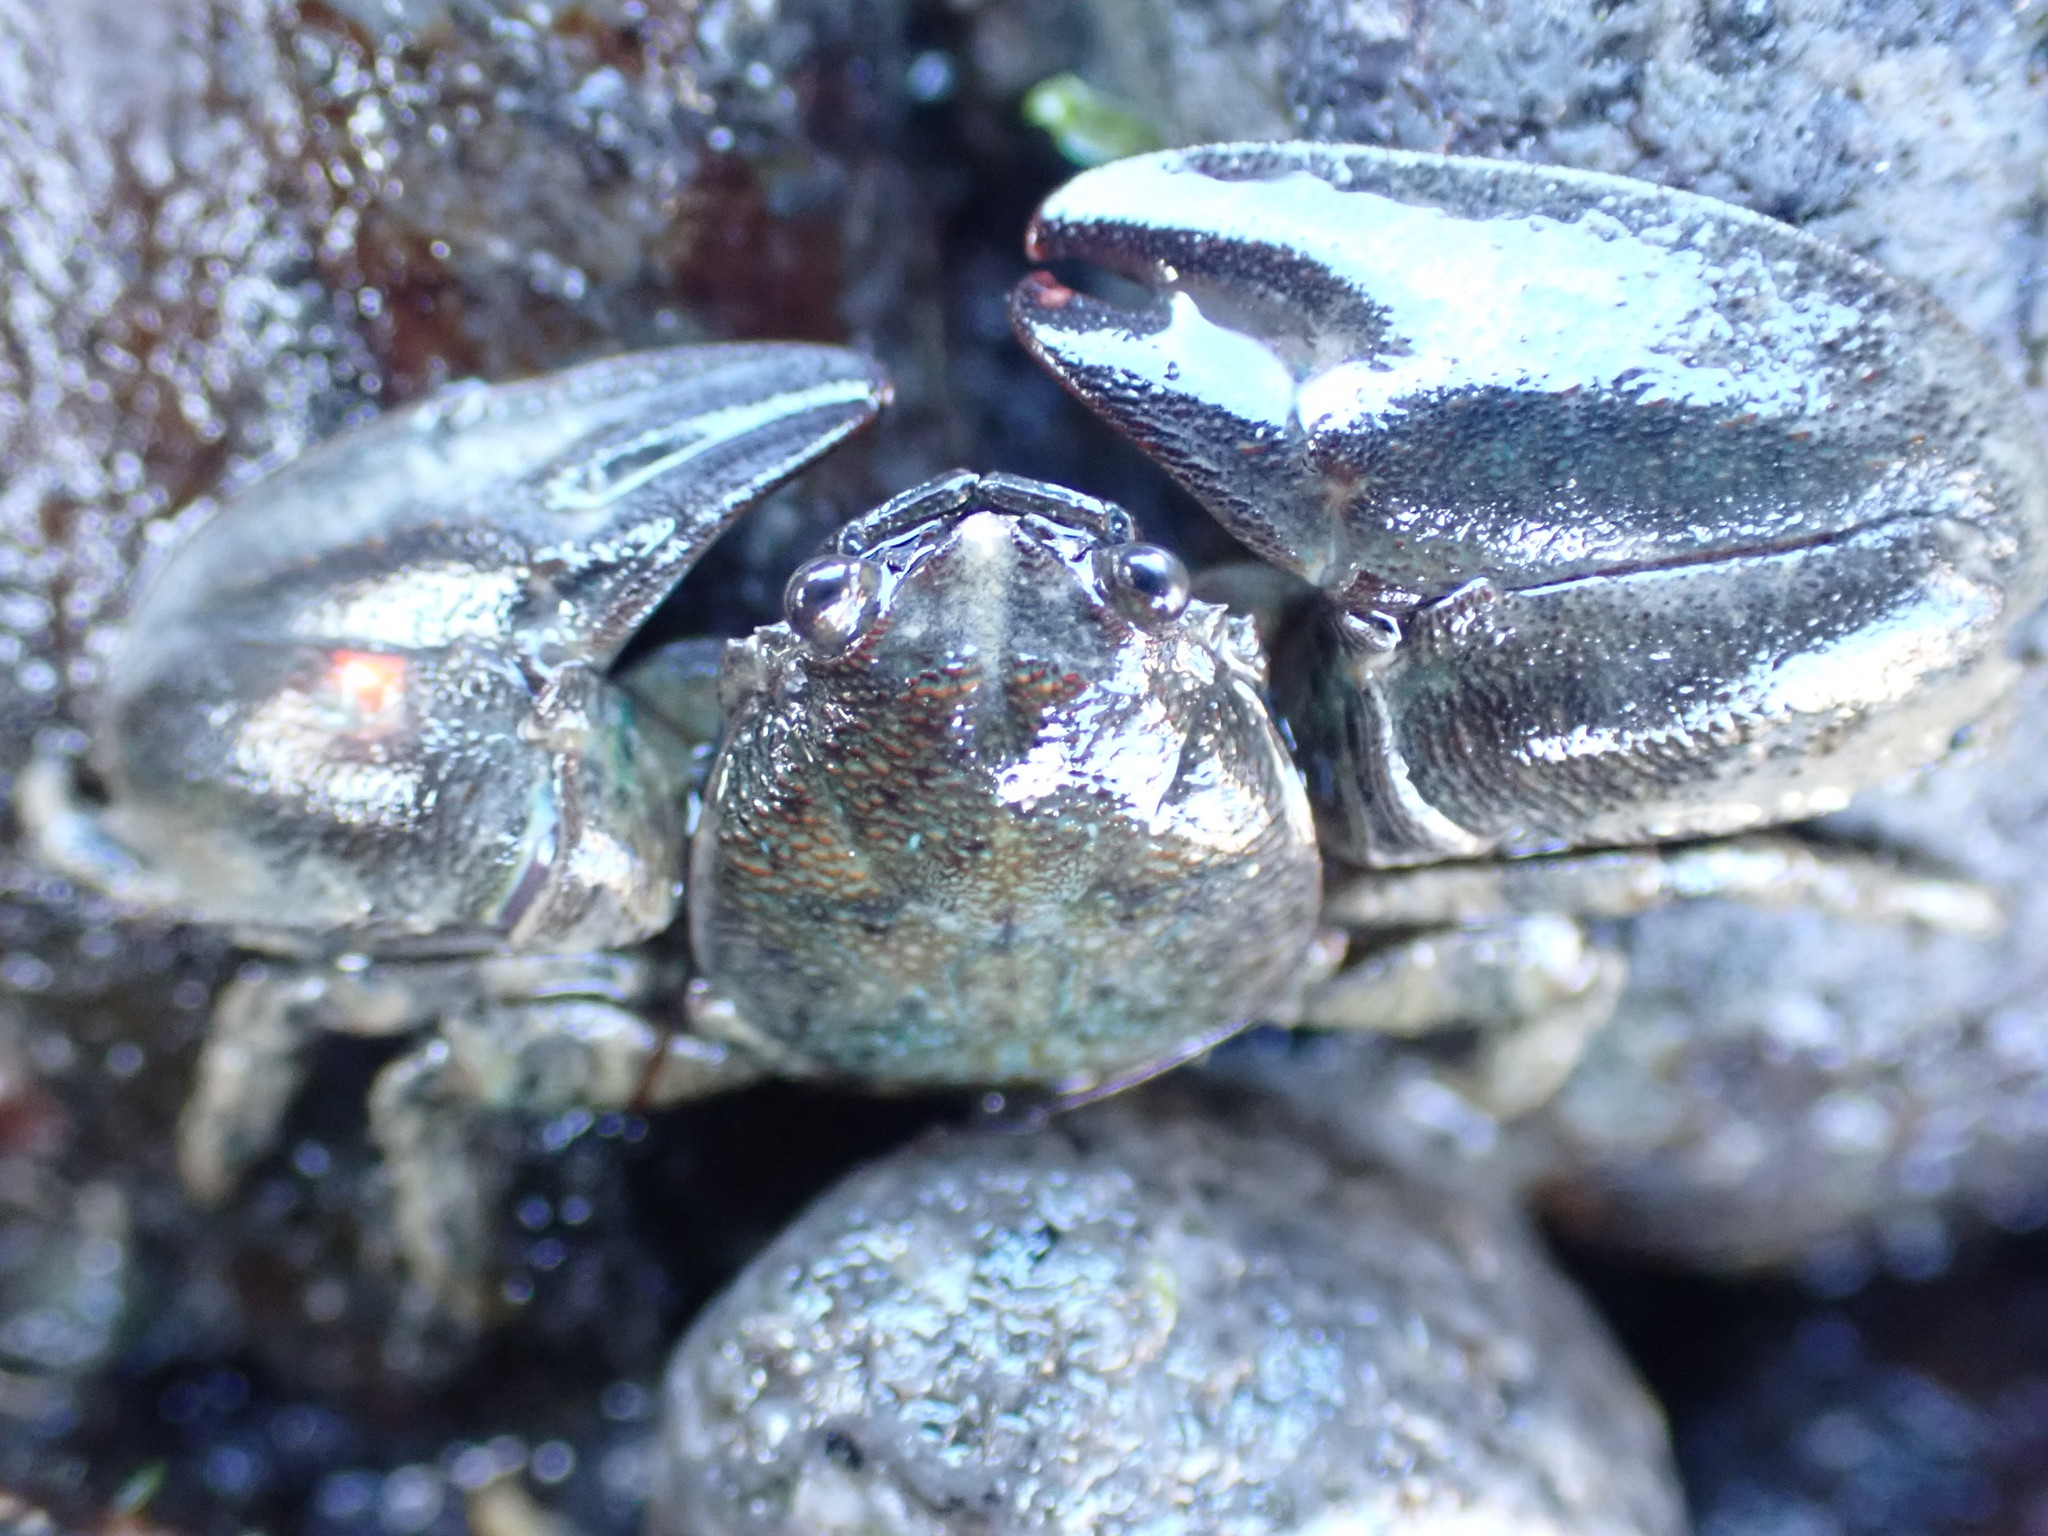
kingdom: Animalia
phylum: Arthropoda
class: Malacostraca
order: Decapoda
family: Porcellanidae
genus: Petrolisthes
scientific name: Petrolisthes elongatus
